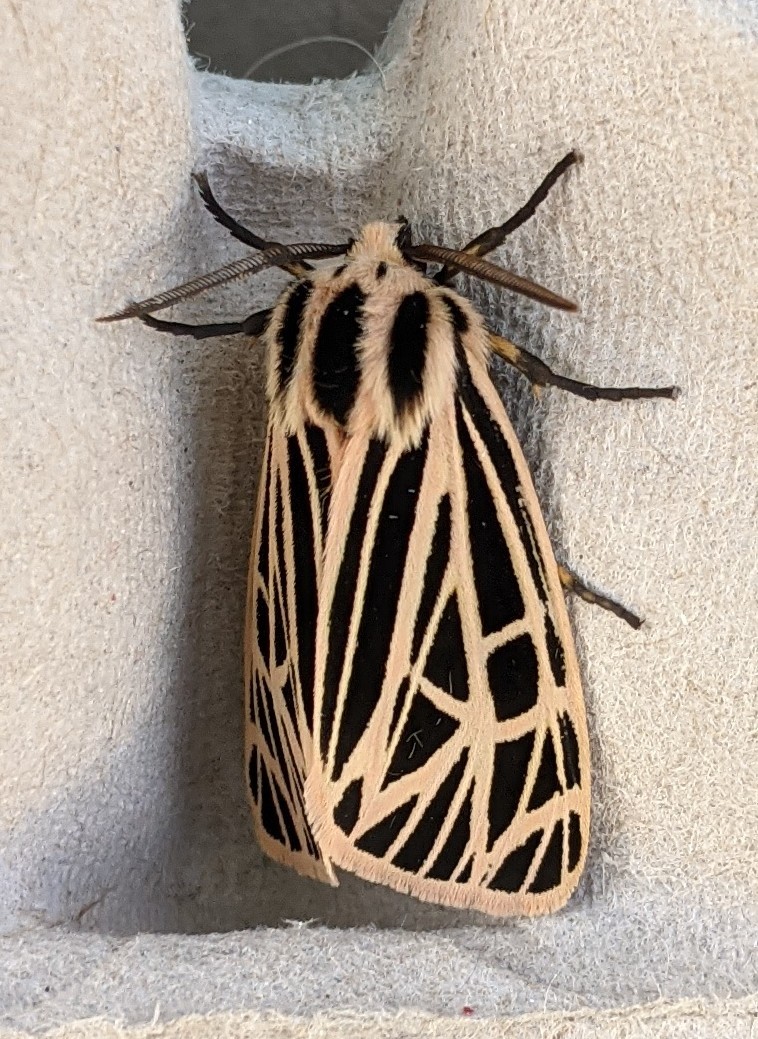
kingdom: Animalia
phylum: Arthropoda
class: Insecta
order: Lepidoptera
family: Erebidae
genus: Grammia
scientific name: Grammia virgo
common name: Virgin tiger moth
